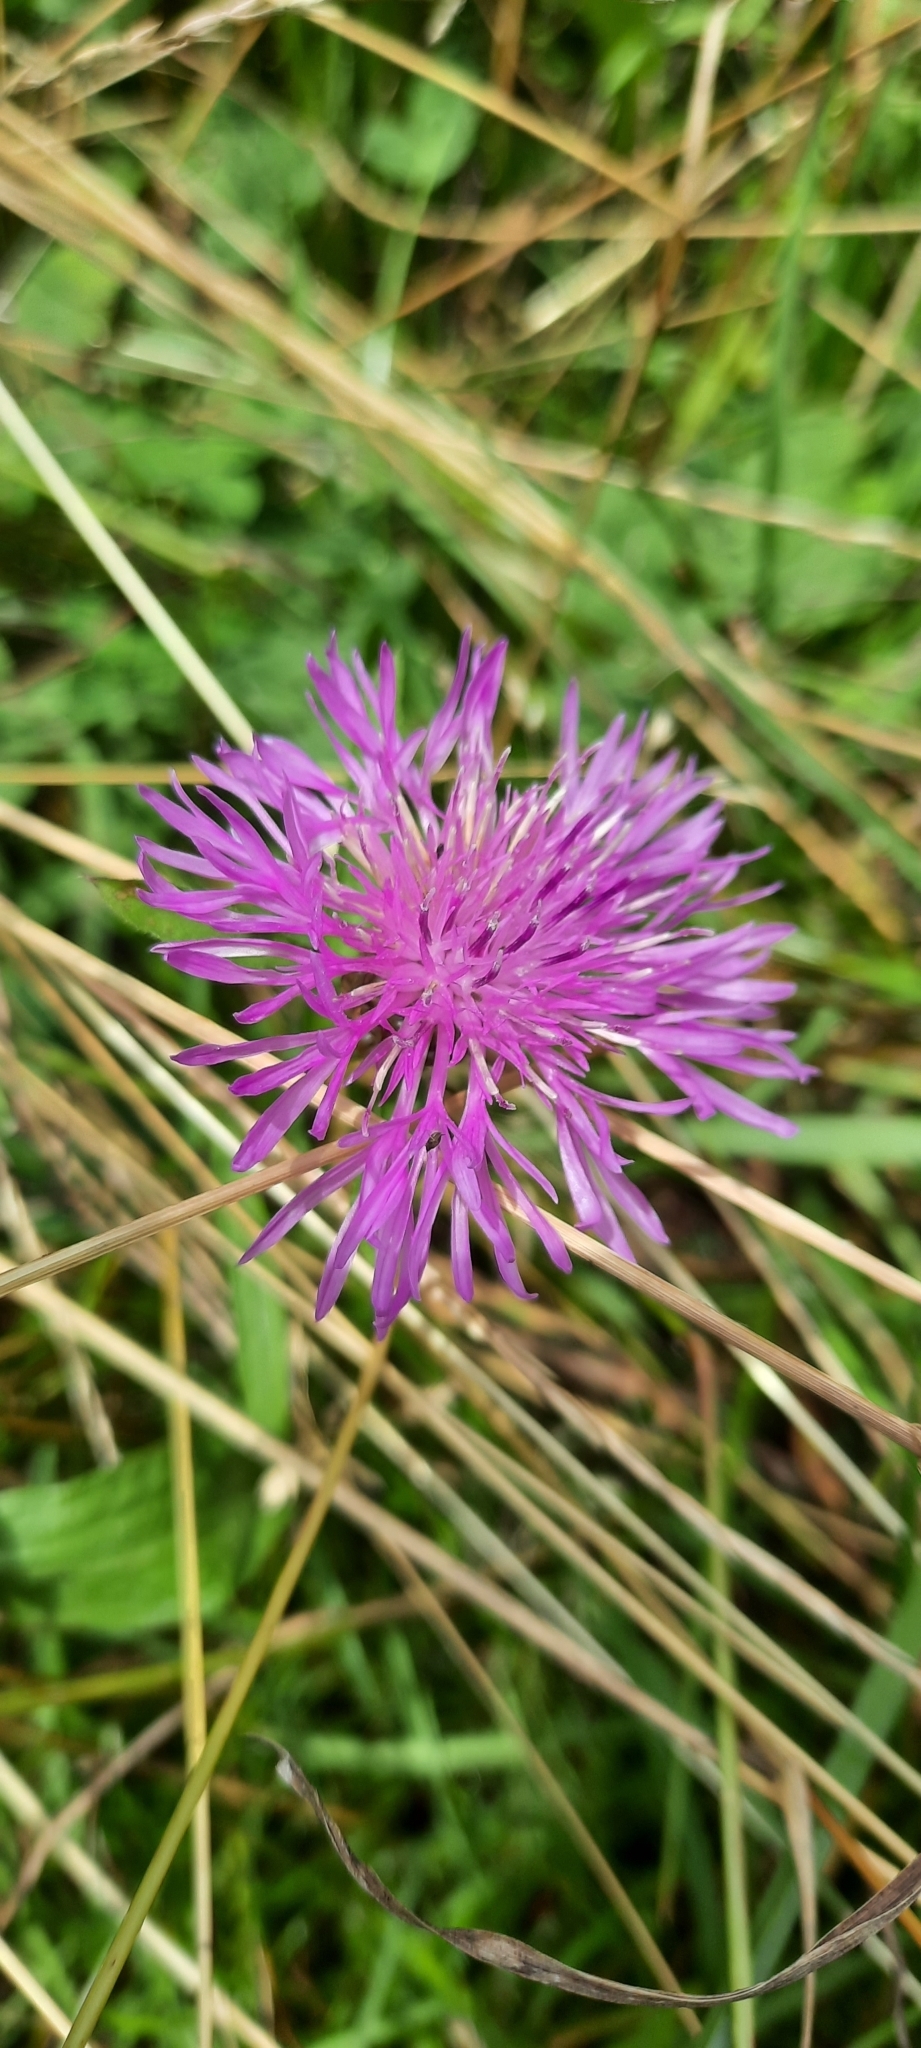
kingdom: Plantae
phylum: Tracheophyta
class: Magnoliopsida
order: Asterales
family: Asteraceae
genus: Centaurea
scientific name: Centaurea jacea
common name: Brown knapweed
